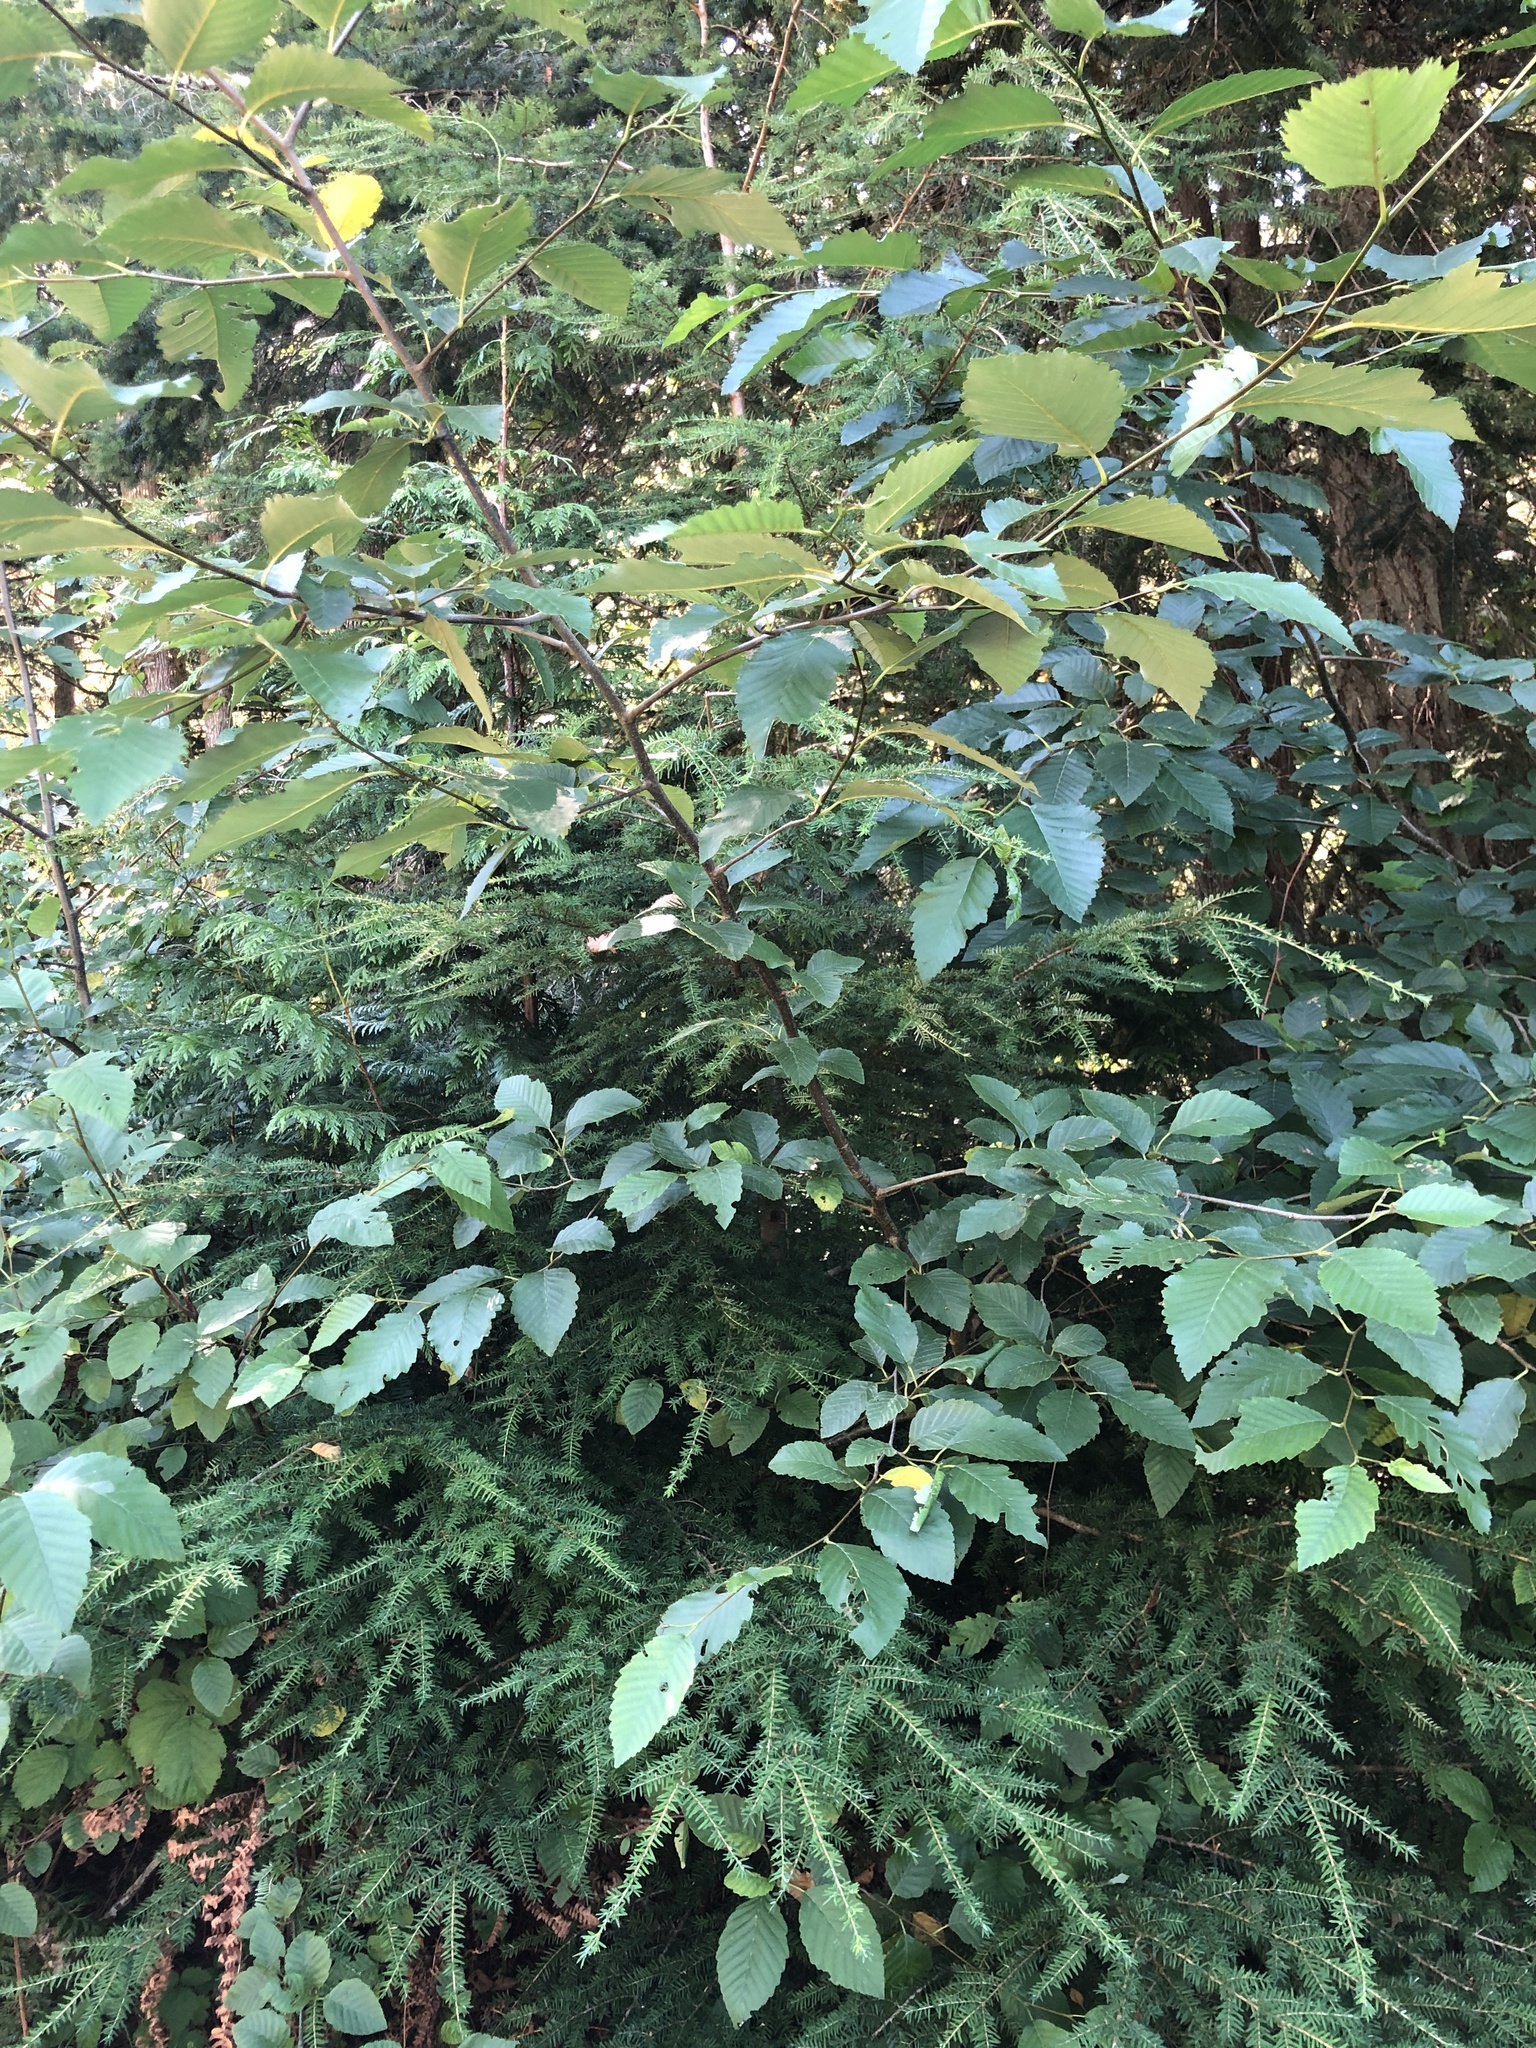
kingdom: Plantae
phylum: Tracheophyta
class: Pinopsida
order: Pinales
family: Pinaceae
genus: Tsuga
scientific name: Tsuga heterophylla
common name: Western hemlock
